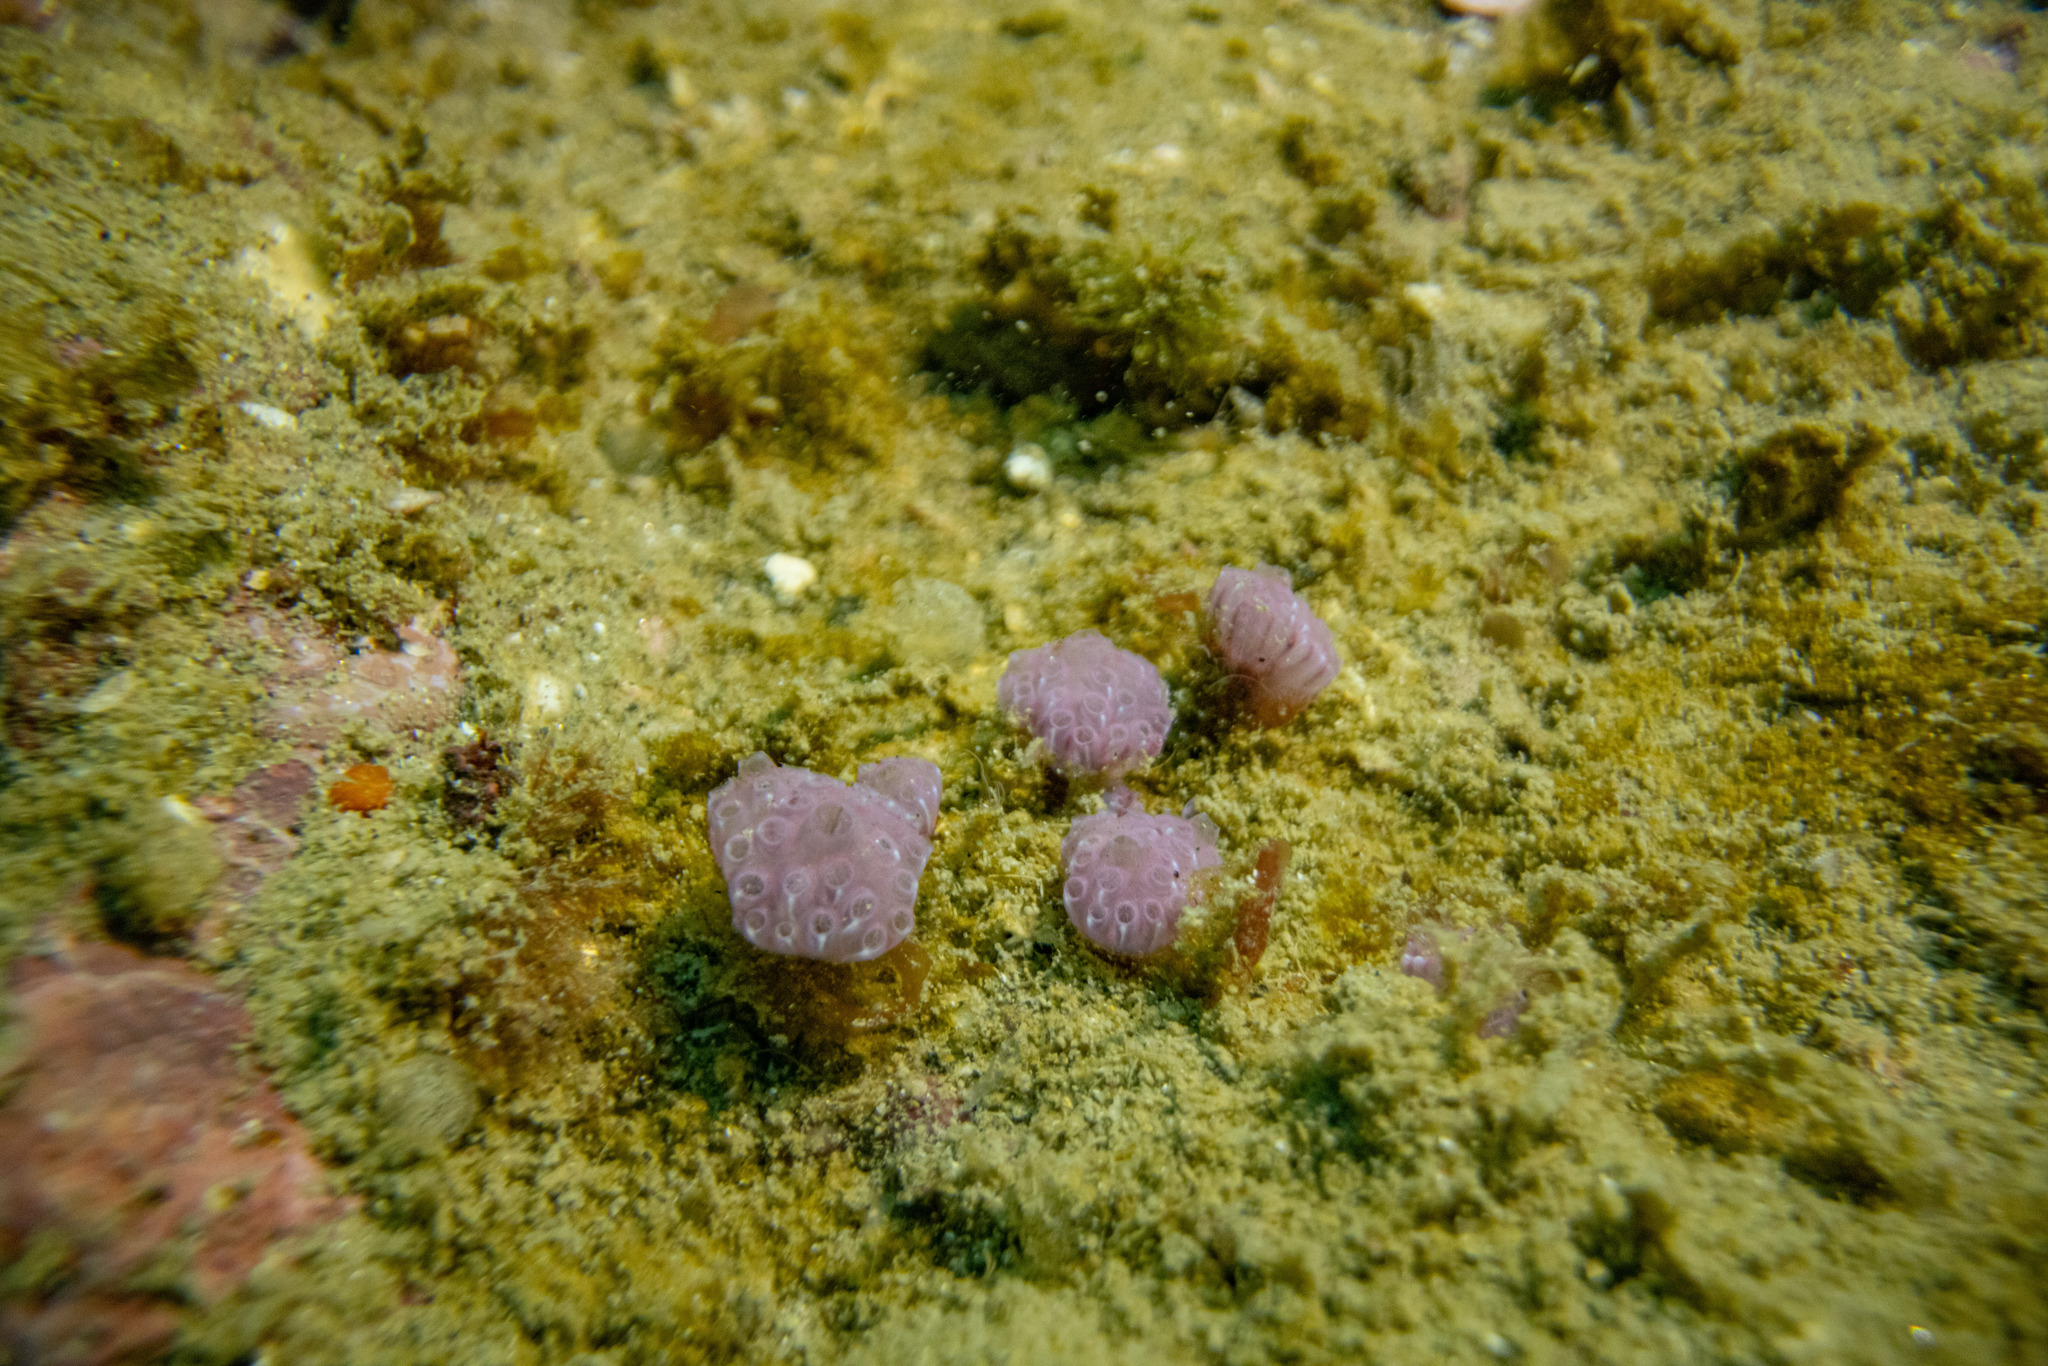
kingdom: Animalia
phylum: Chordata
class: Ascidiacea
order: Aplousobranchia
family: Holozoidae
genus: Hypsistozoa
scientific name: Hypsistozoa fasmeriana
